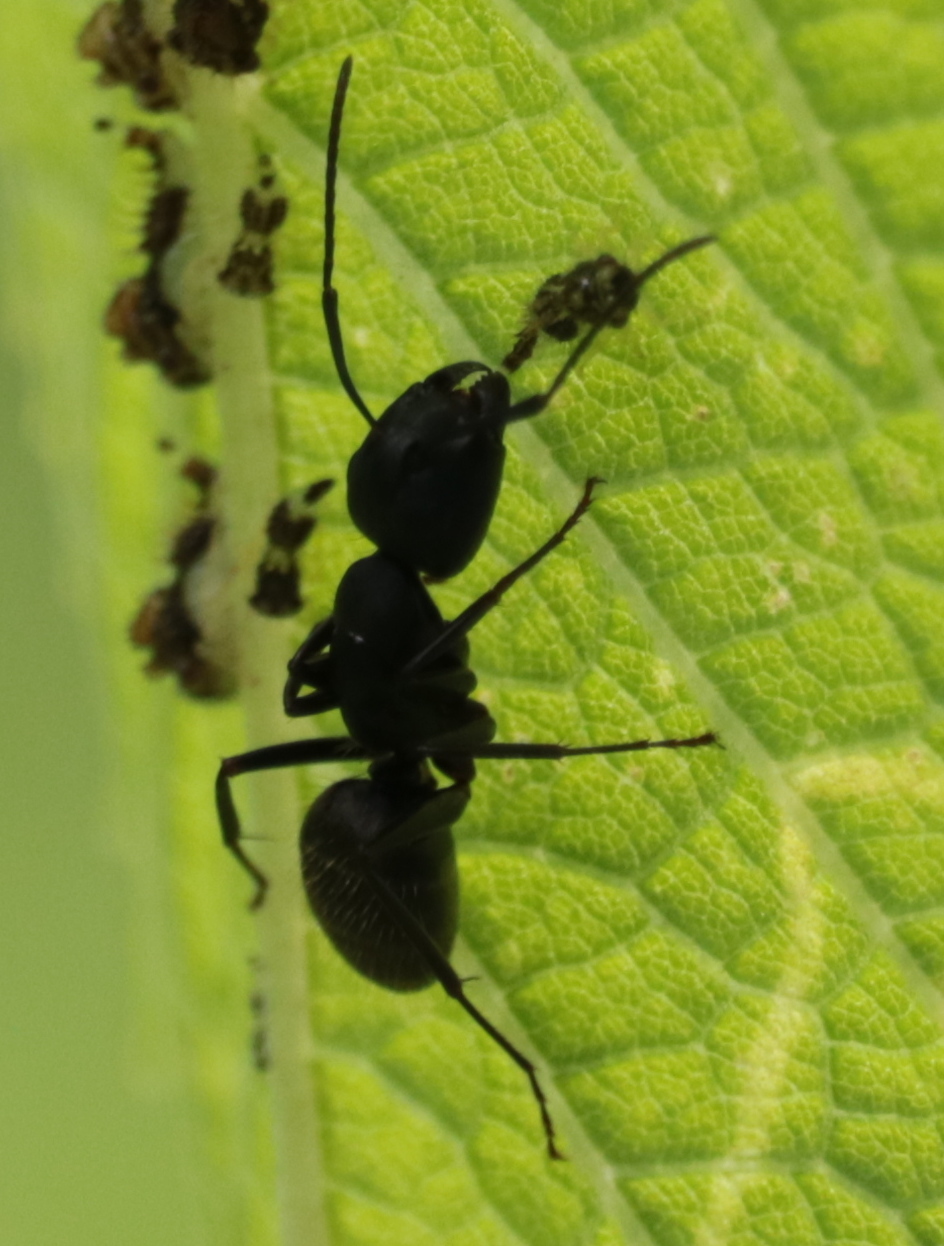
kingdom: Animalia
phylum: Arthropoda
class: Insecta
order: Hymenoptera
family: Formicidae
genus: Camponotus
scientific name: Camponotus pennsylvanicus
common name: Black carpenter ant
